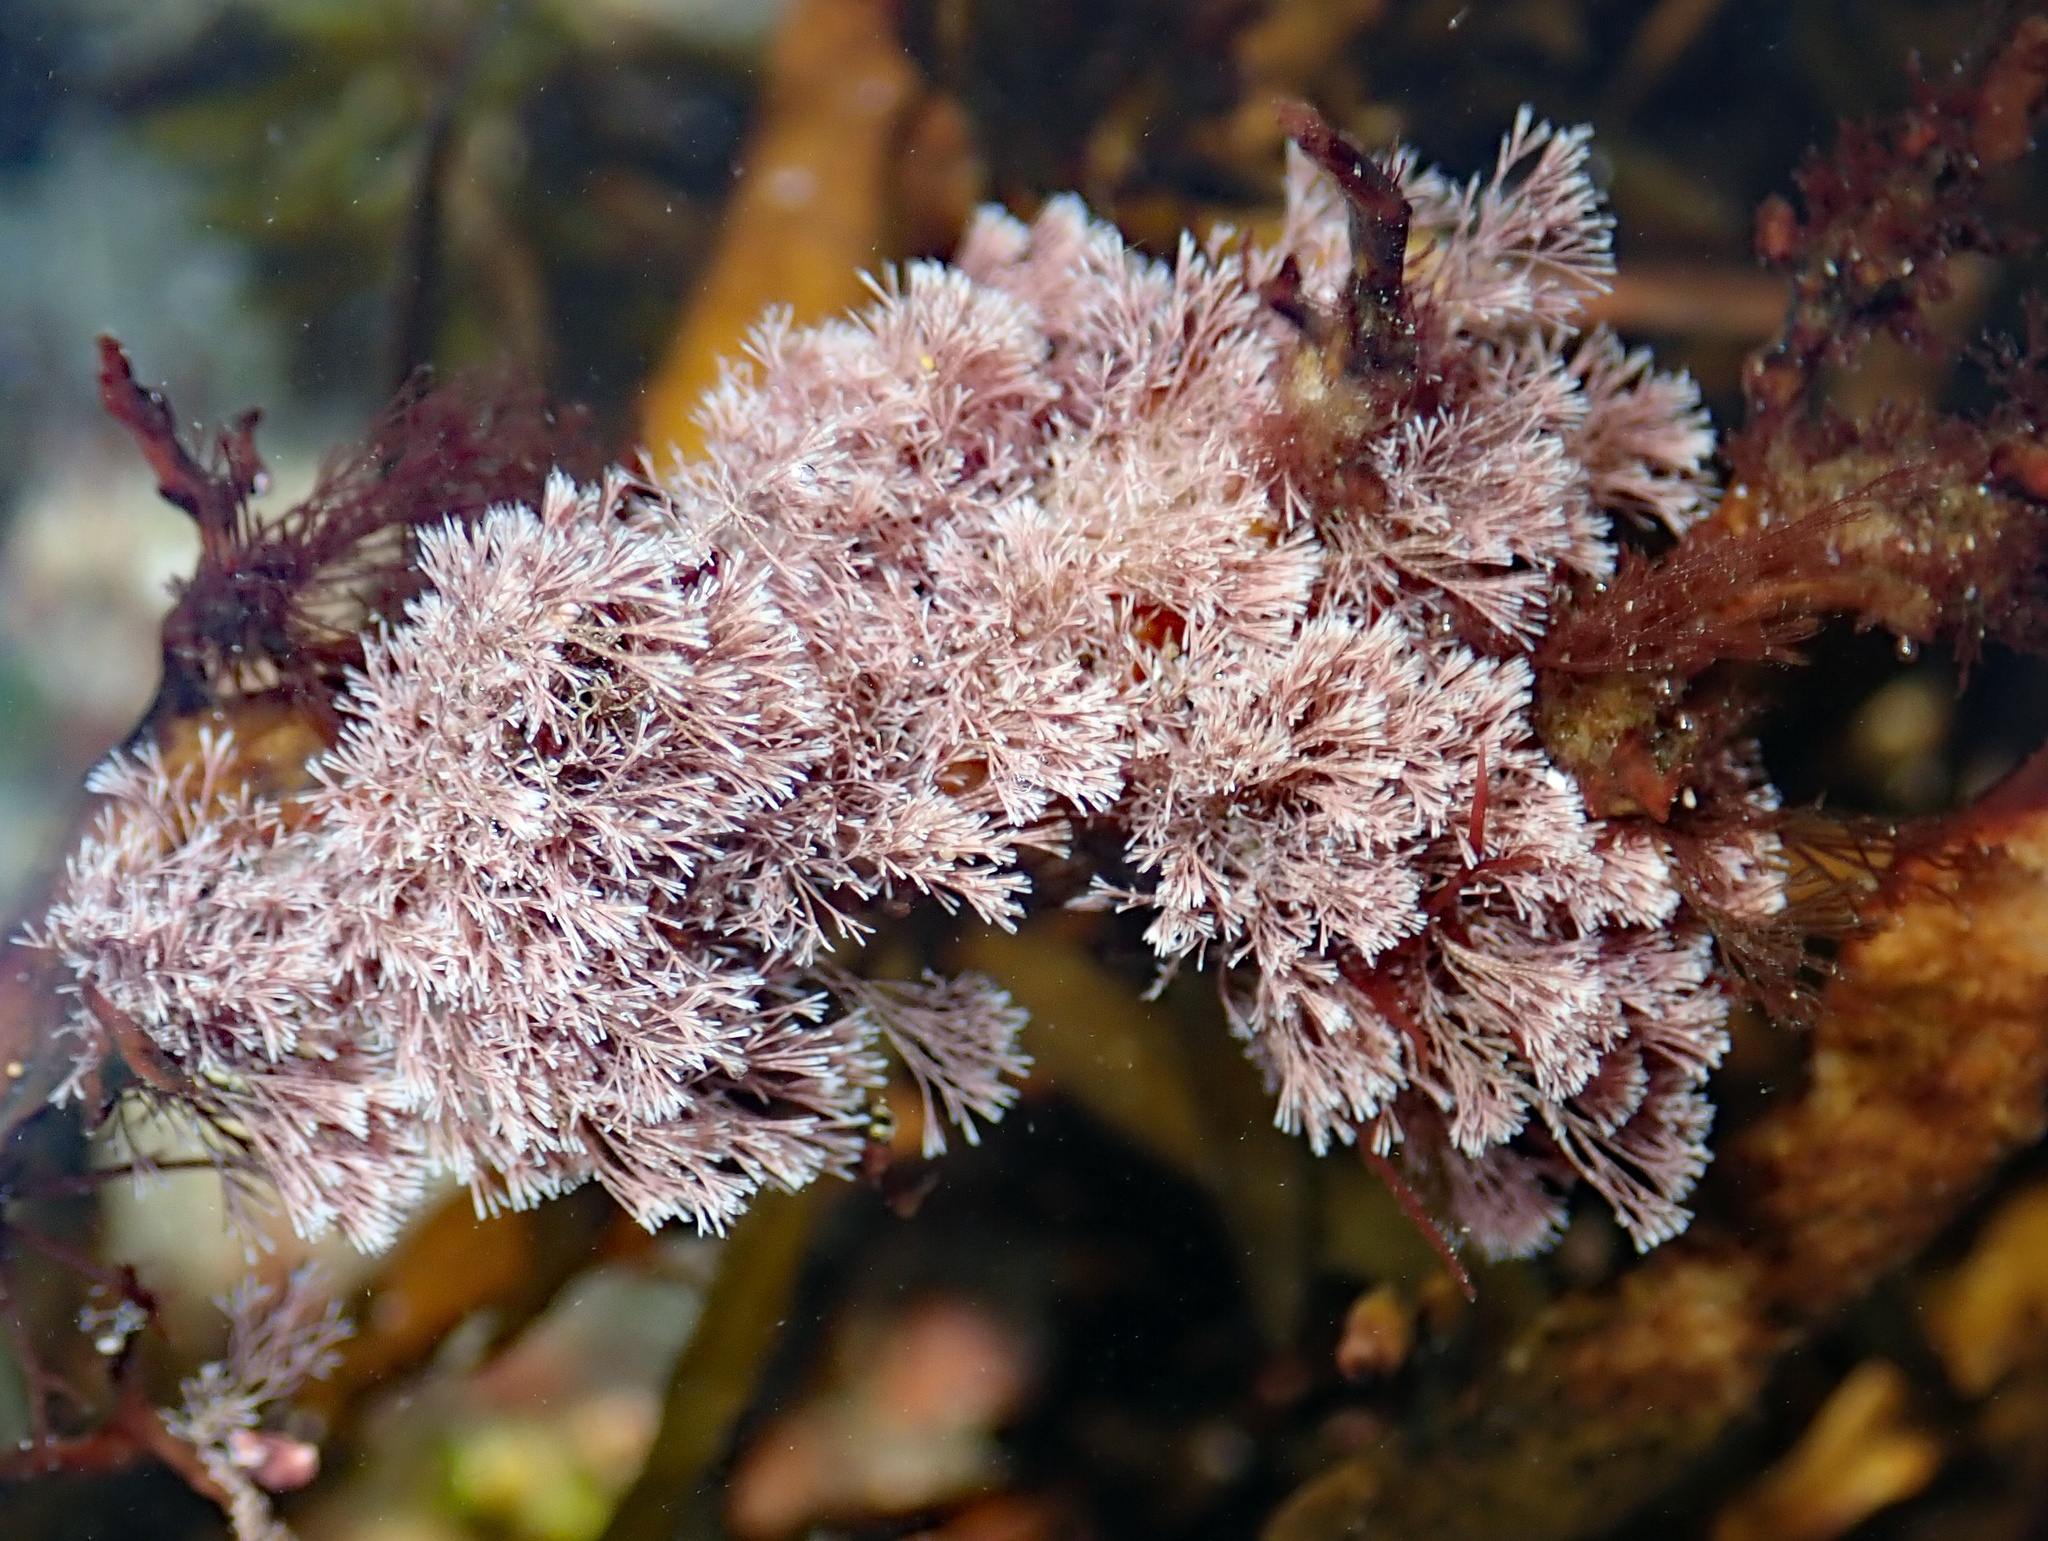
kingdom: Plantae
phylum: Rhodophyta
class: Florideophyceae
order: Corallinales
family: Corallinaceae
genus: Jania
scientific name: Jania sphaeroramosa
